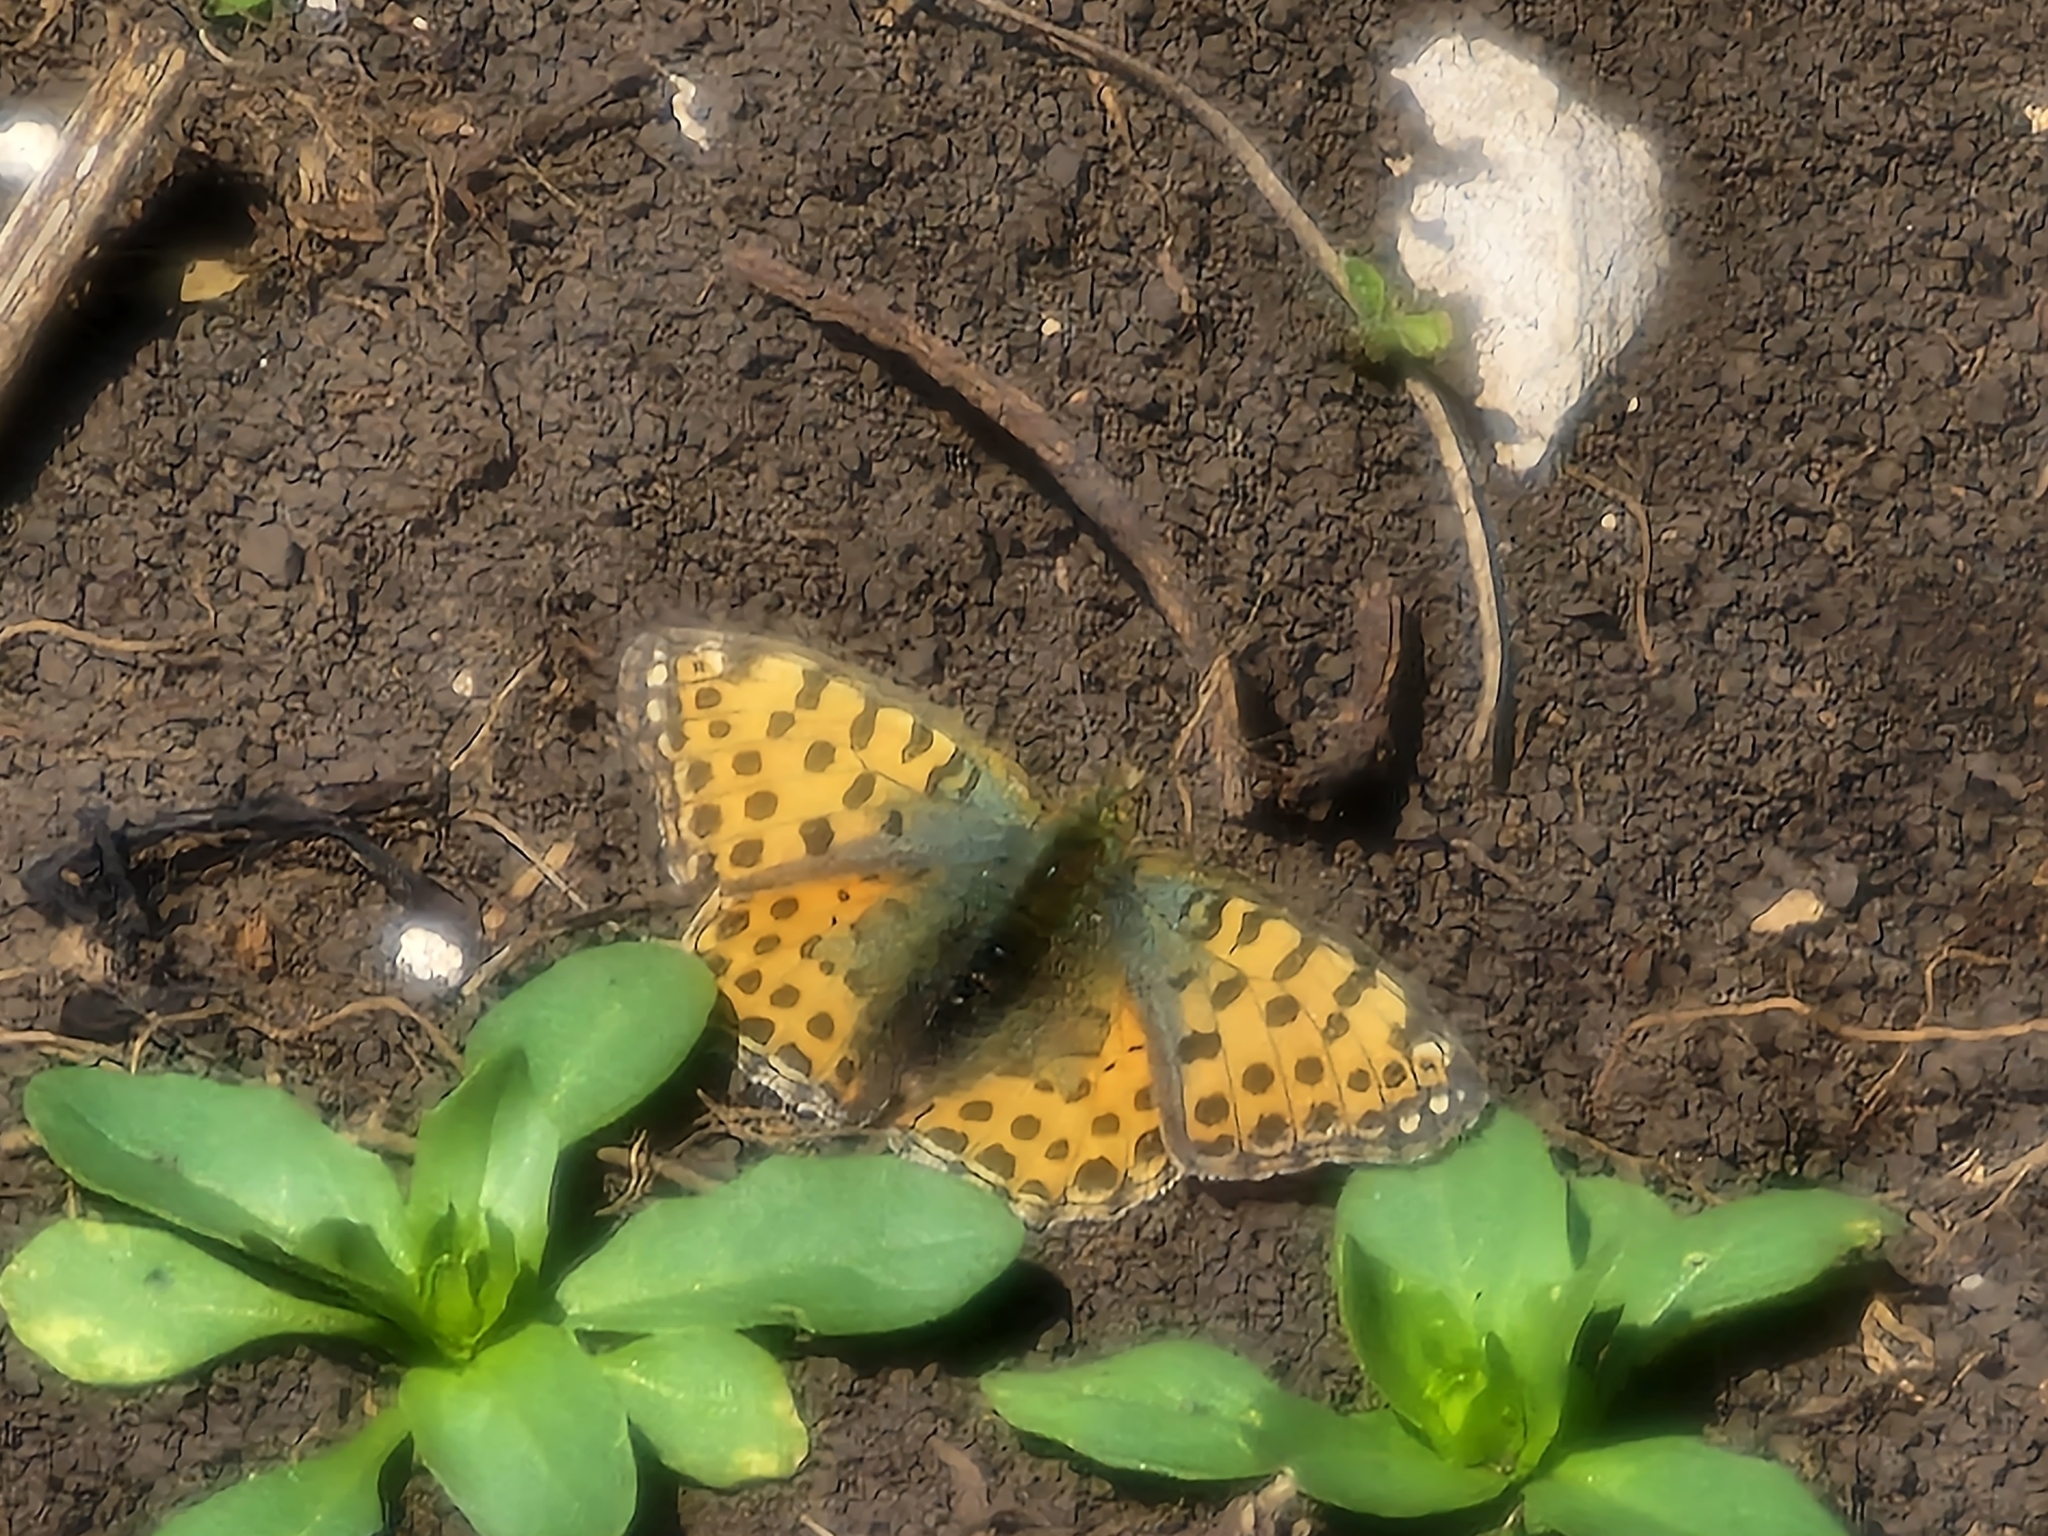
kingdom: Animalia
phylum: Arthropoda
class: Insecta
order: Lepidoptera
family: Nymphalidae
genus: Issoria
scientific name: Issoria lathonia
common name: Queen of spain fritillary
